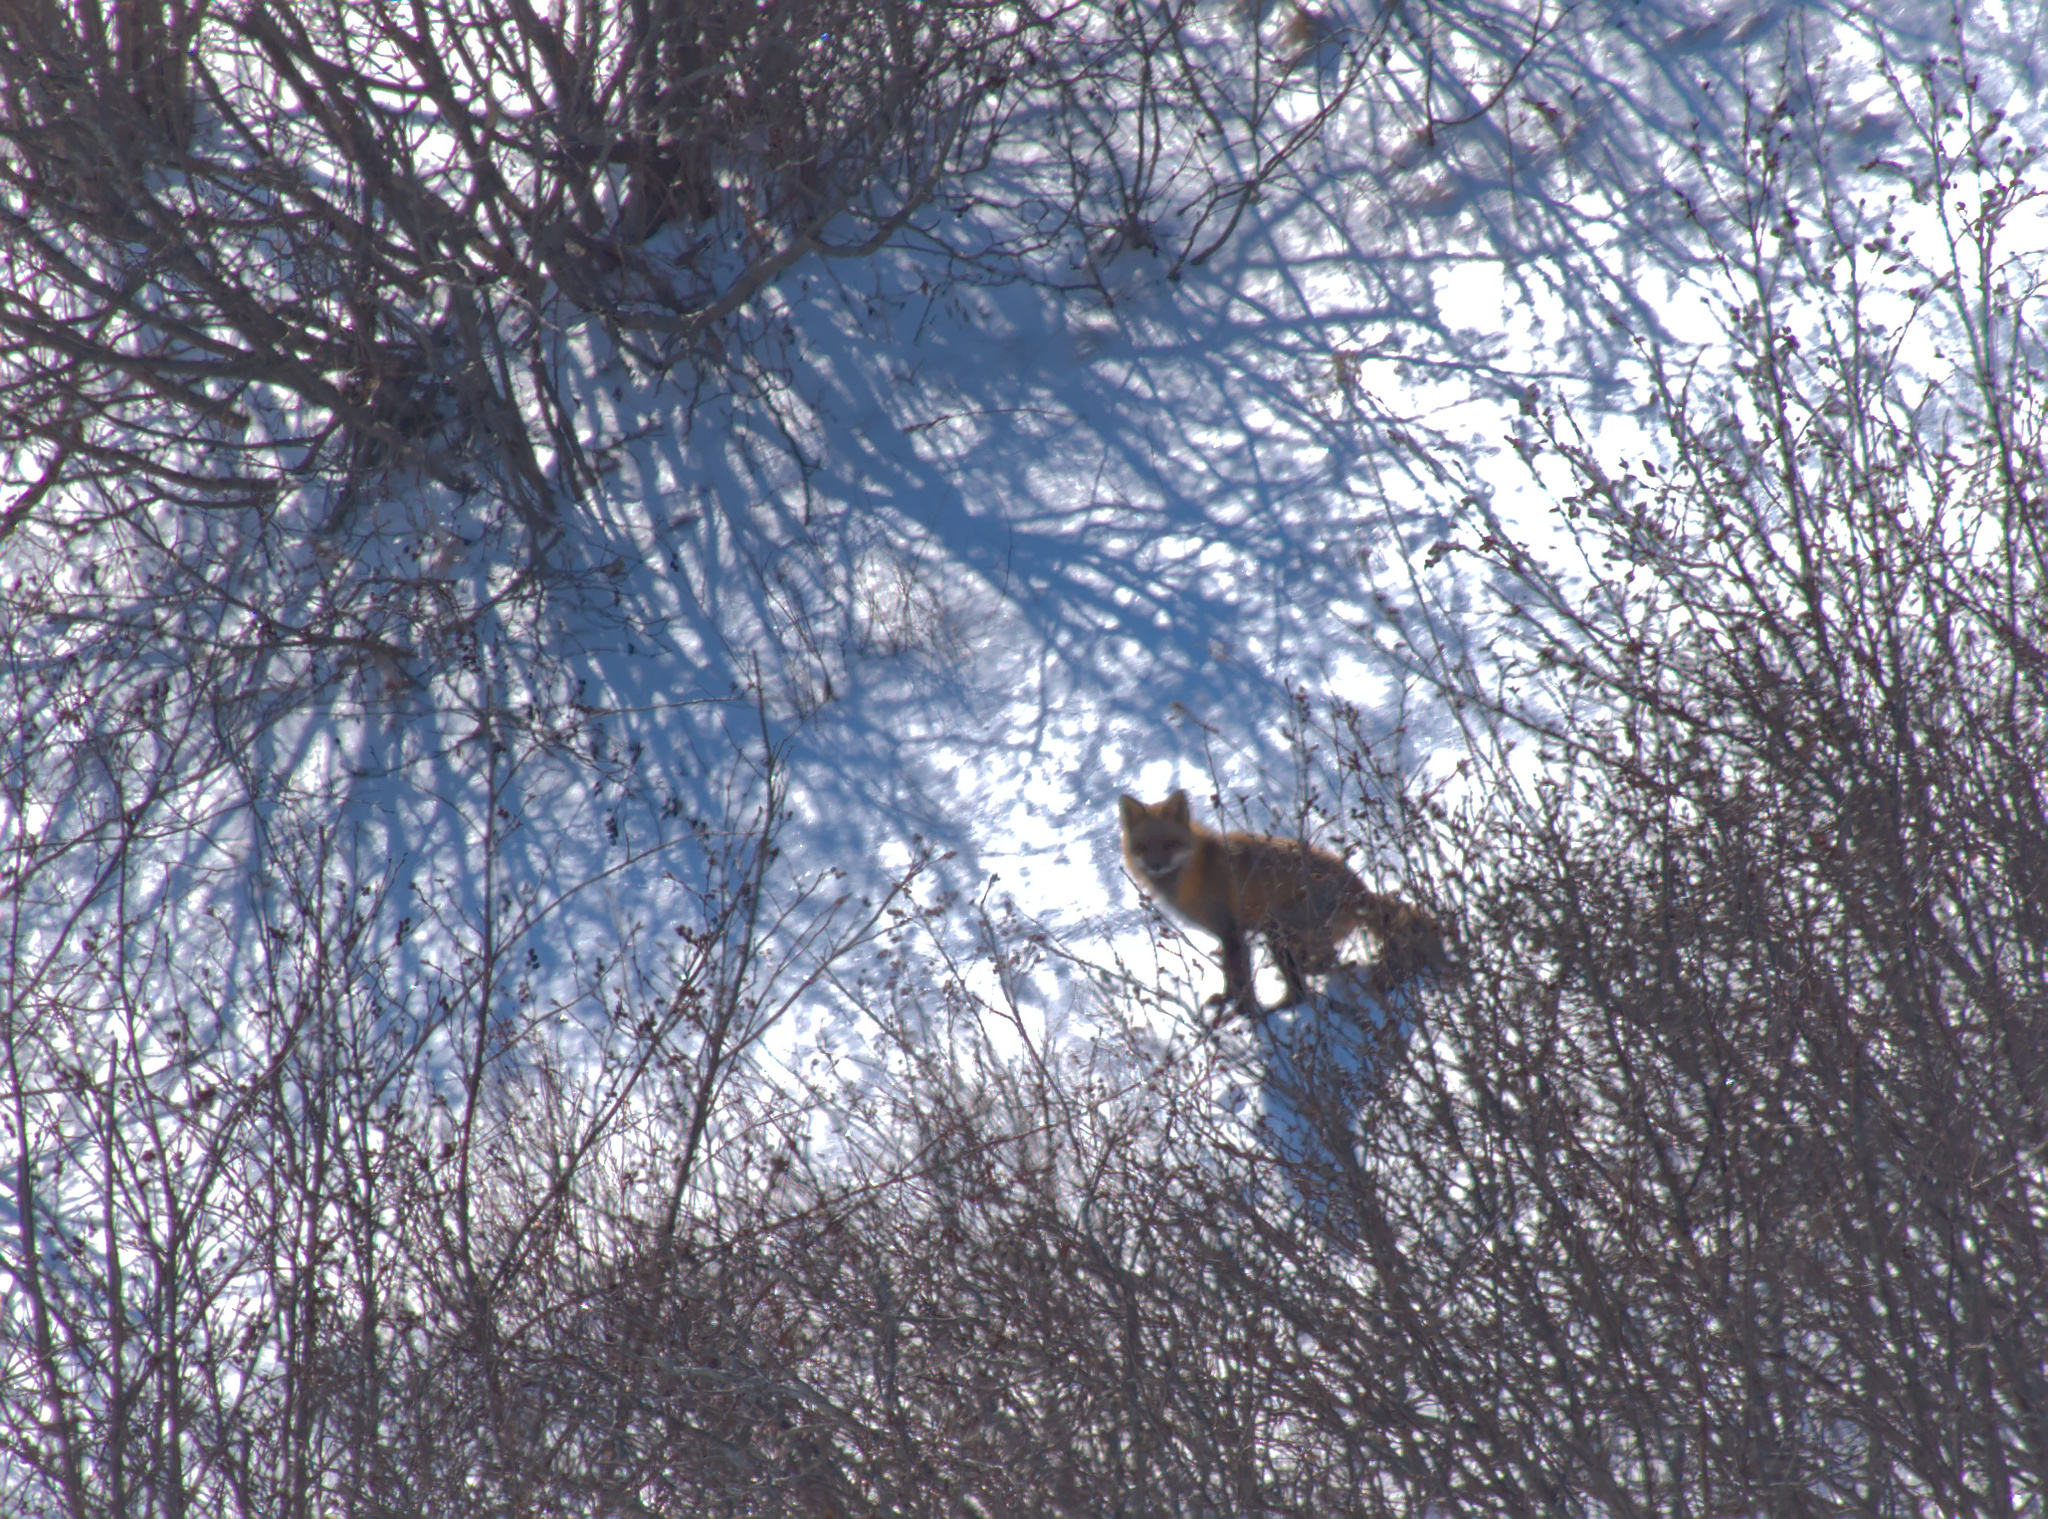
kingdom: Animalia
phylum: Chordata
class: Mammalia
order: Carnivora
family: Canidae
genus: Vulpes
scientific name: Vulpes vulpes
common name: Red fox
